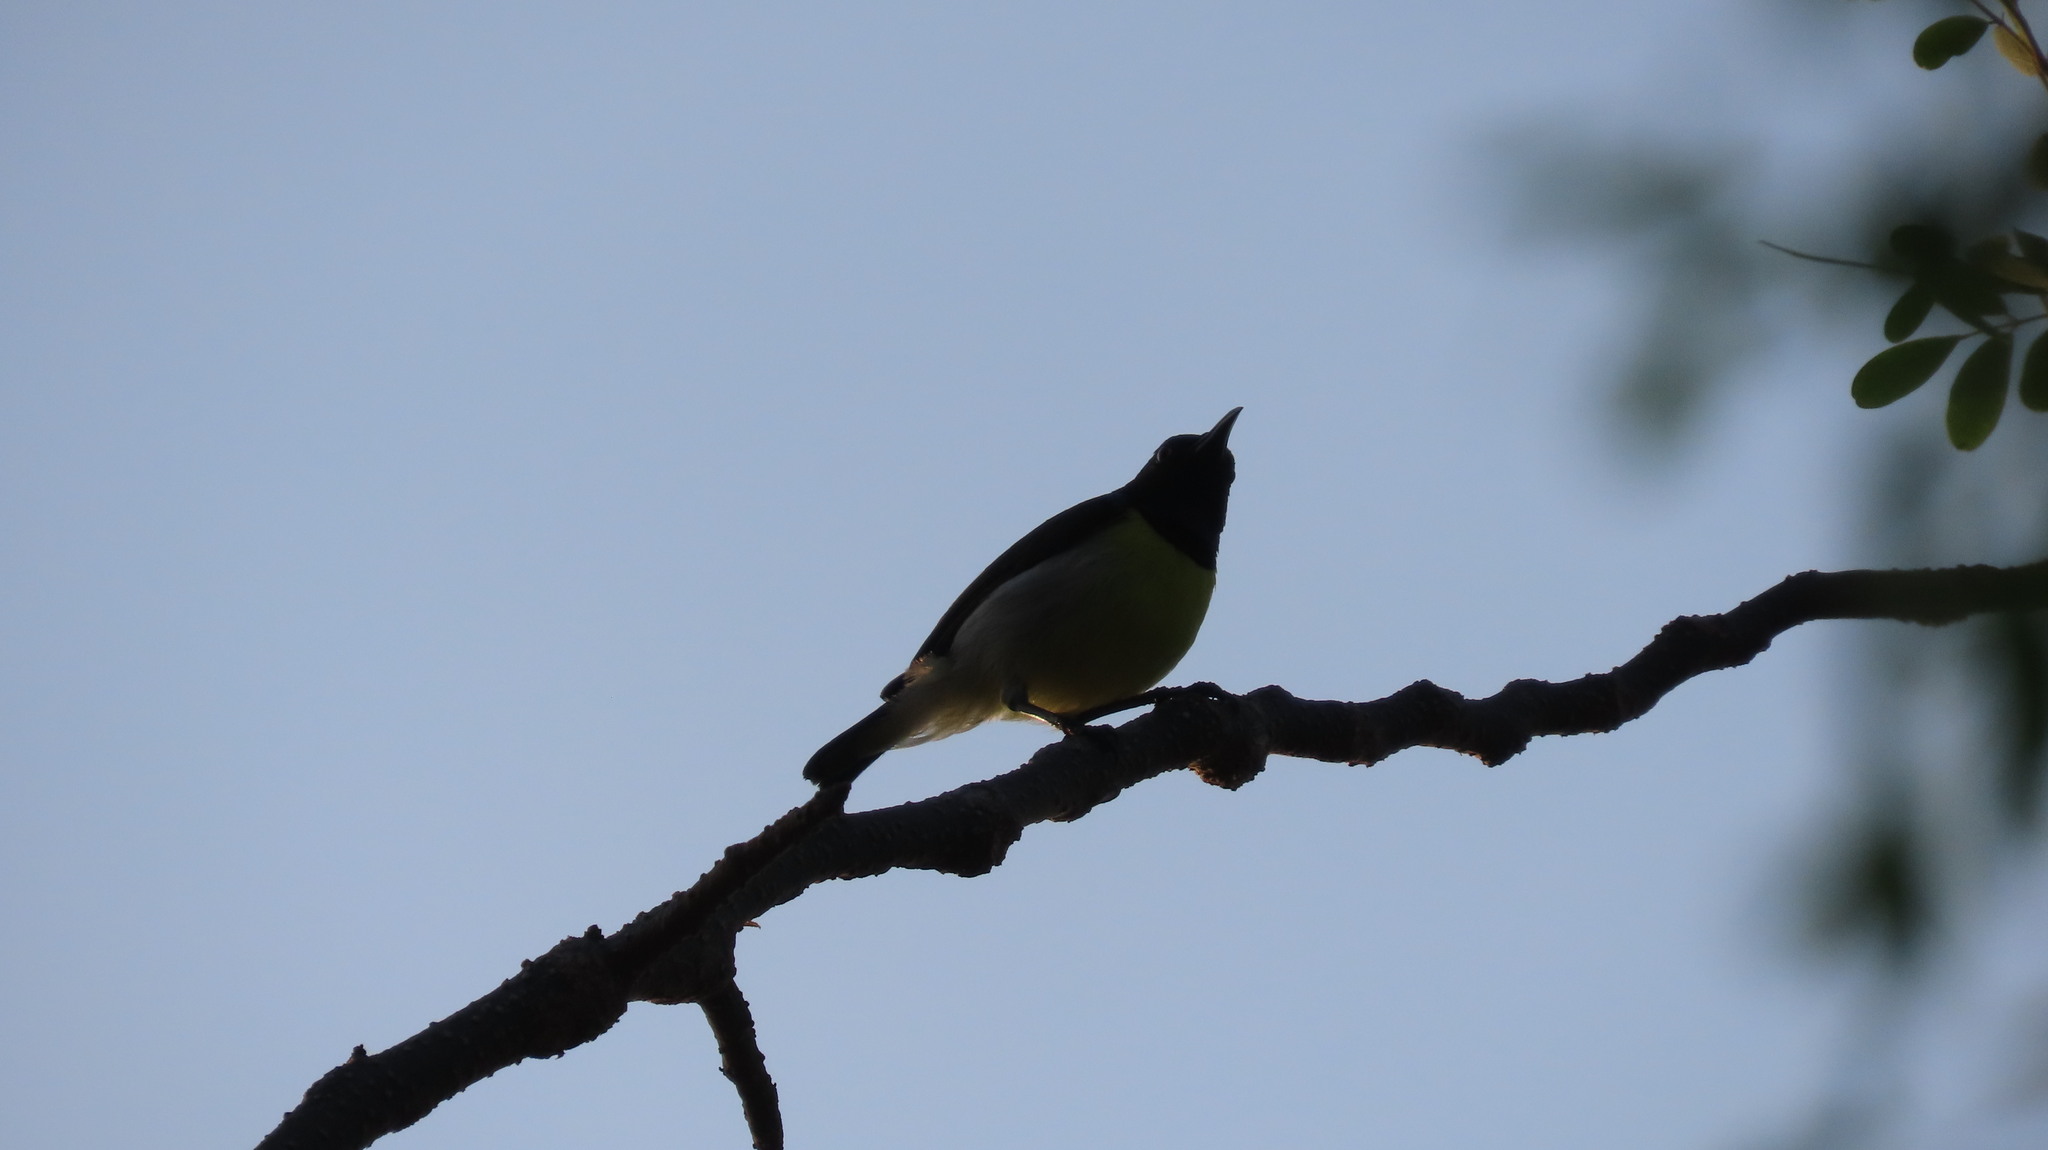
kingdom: Animalia
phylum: Chordata
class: Aves
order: Passeriformes
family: Nectariniidae
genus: Leptocoma
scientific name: Leptocoma zeylonica
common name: Purple-rumped sunbird
